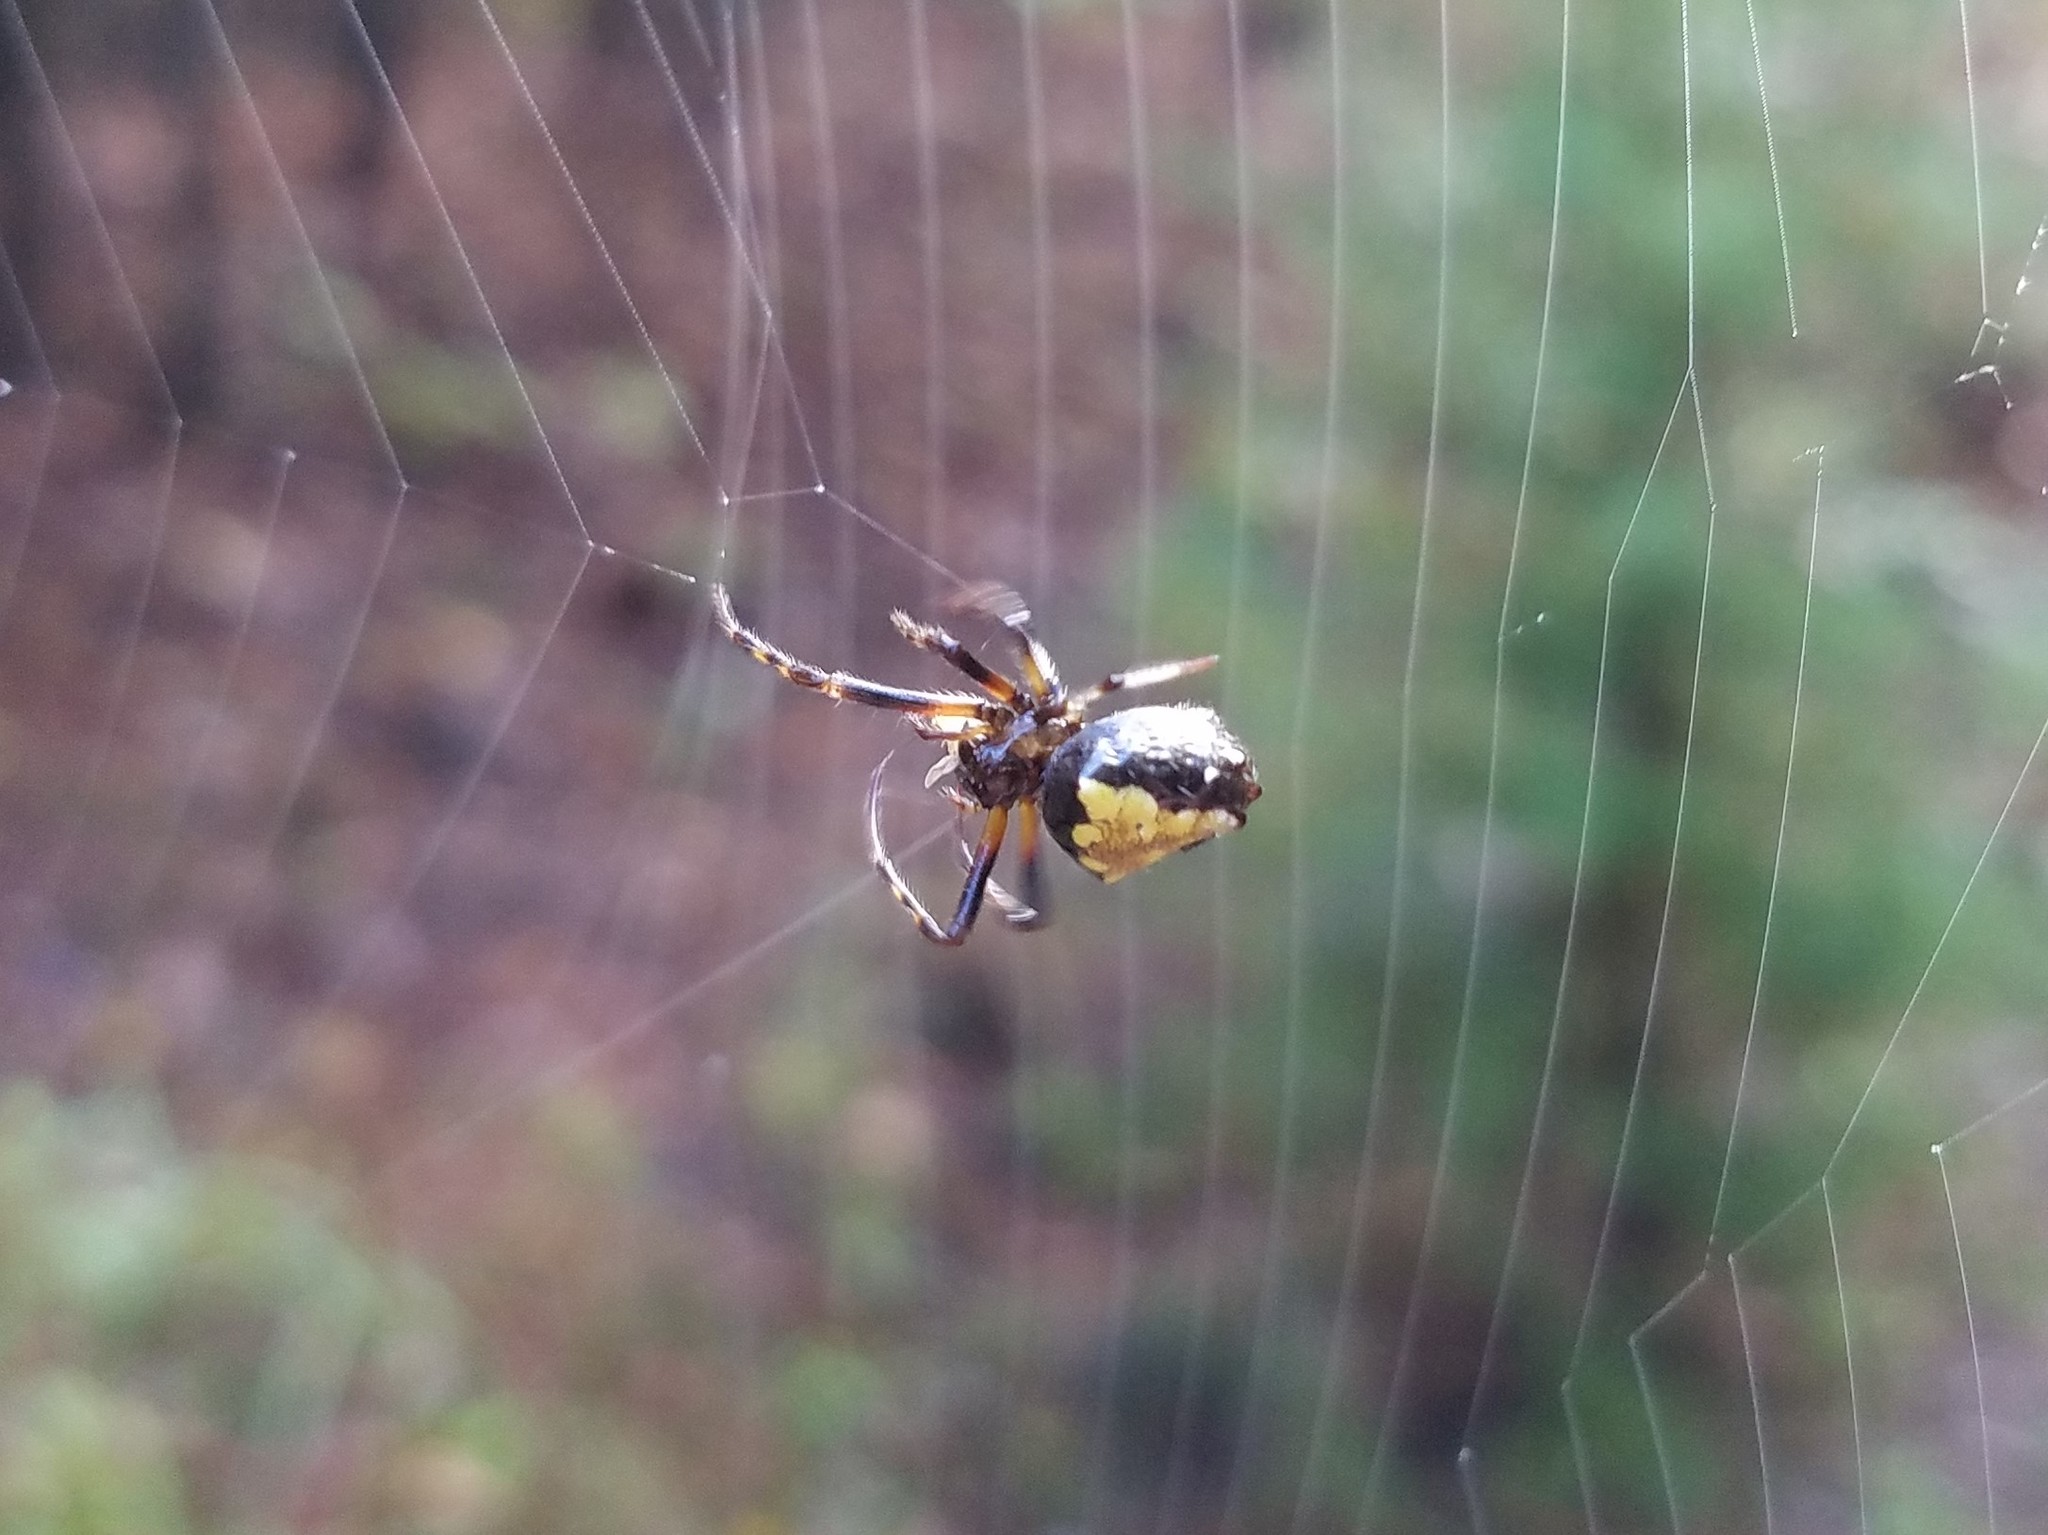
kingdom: Animalia
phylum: Arthropoda
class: Arachnida
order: Araneae
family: Araneidae
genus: Verrucosa
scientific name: Verrucosa arenata
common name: Orb weavers
